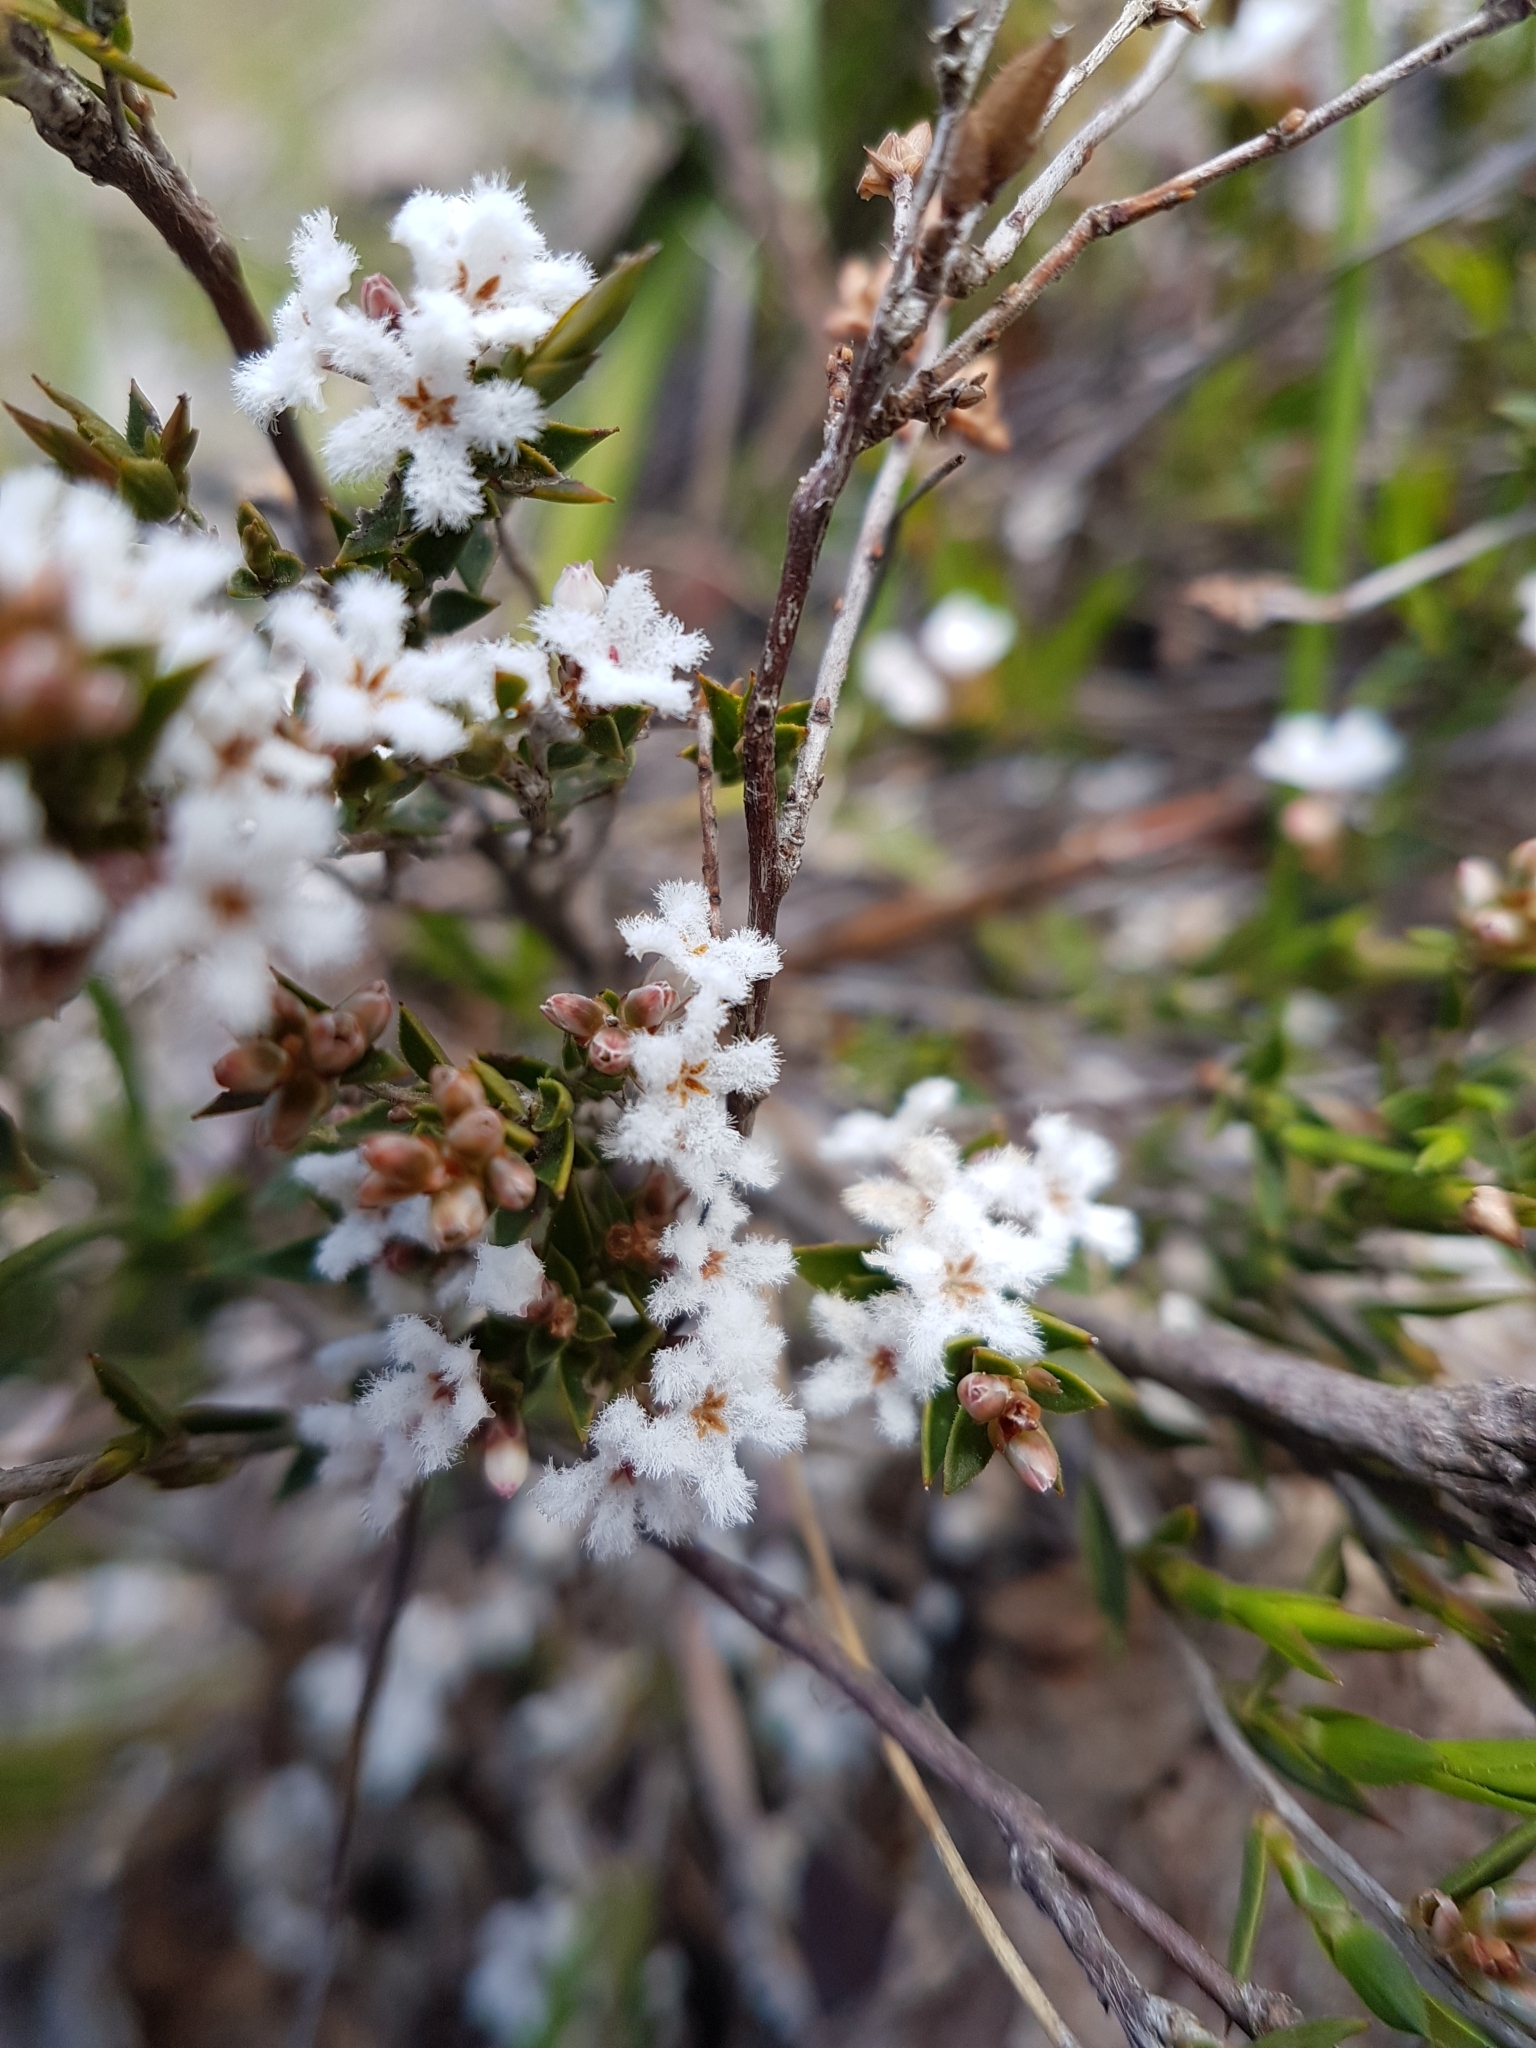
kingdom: Plantae
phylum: Tracheophyta
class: Magnoliopsida
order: Ericales
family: Ericaceae
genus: Leucopogon
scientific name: Leucopogon virgatus
